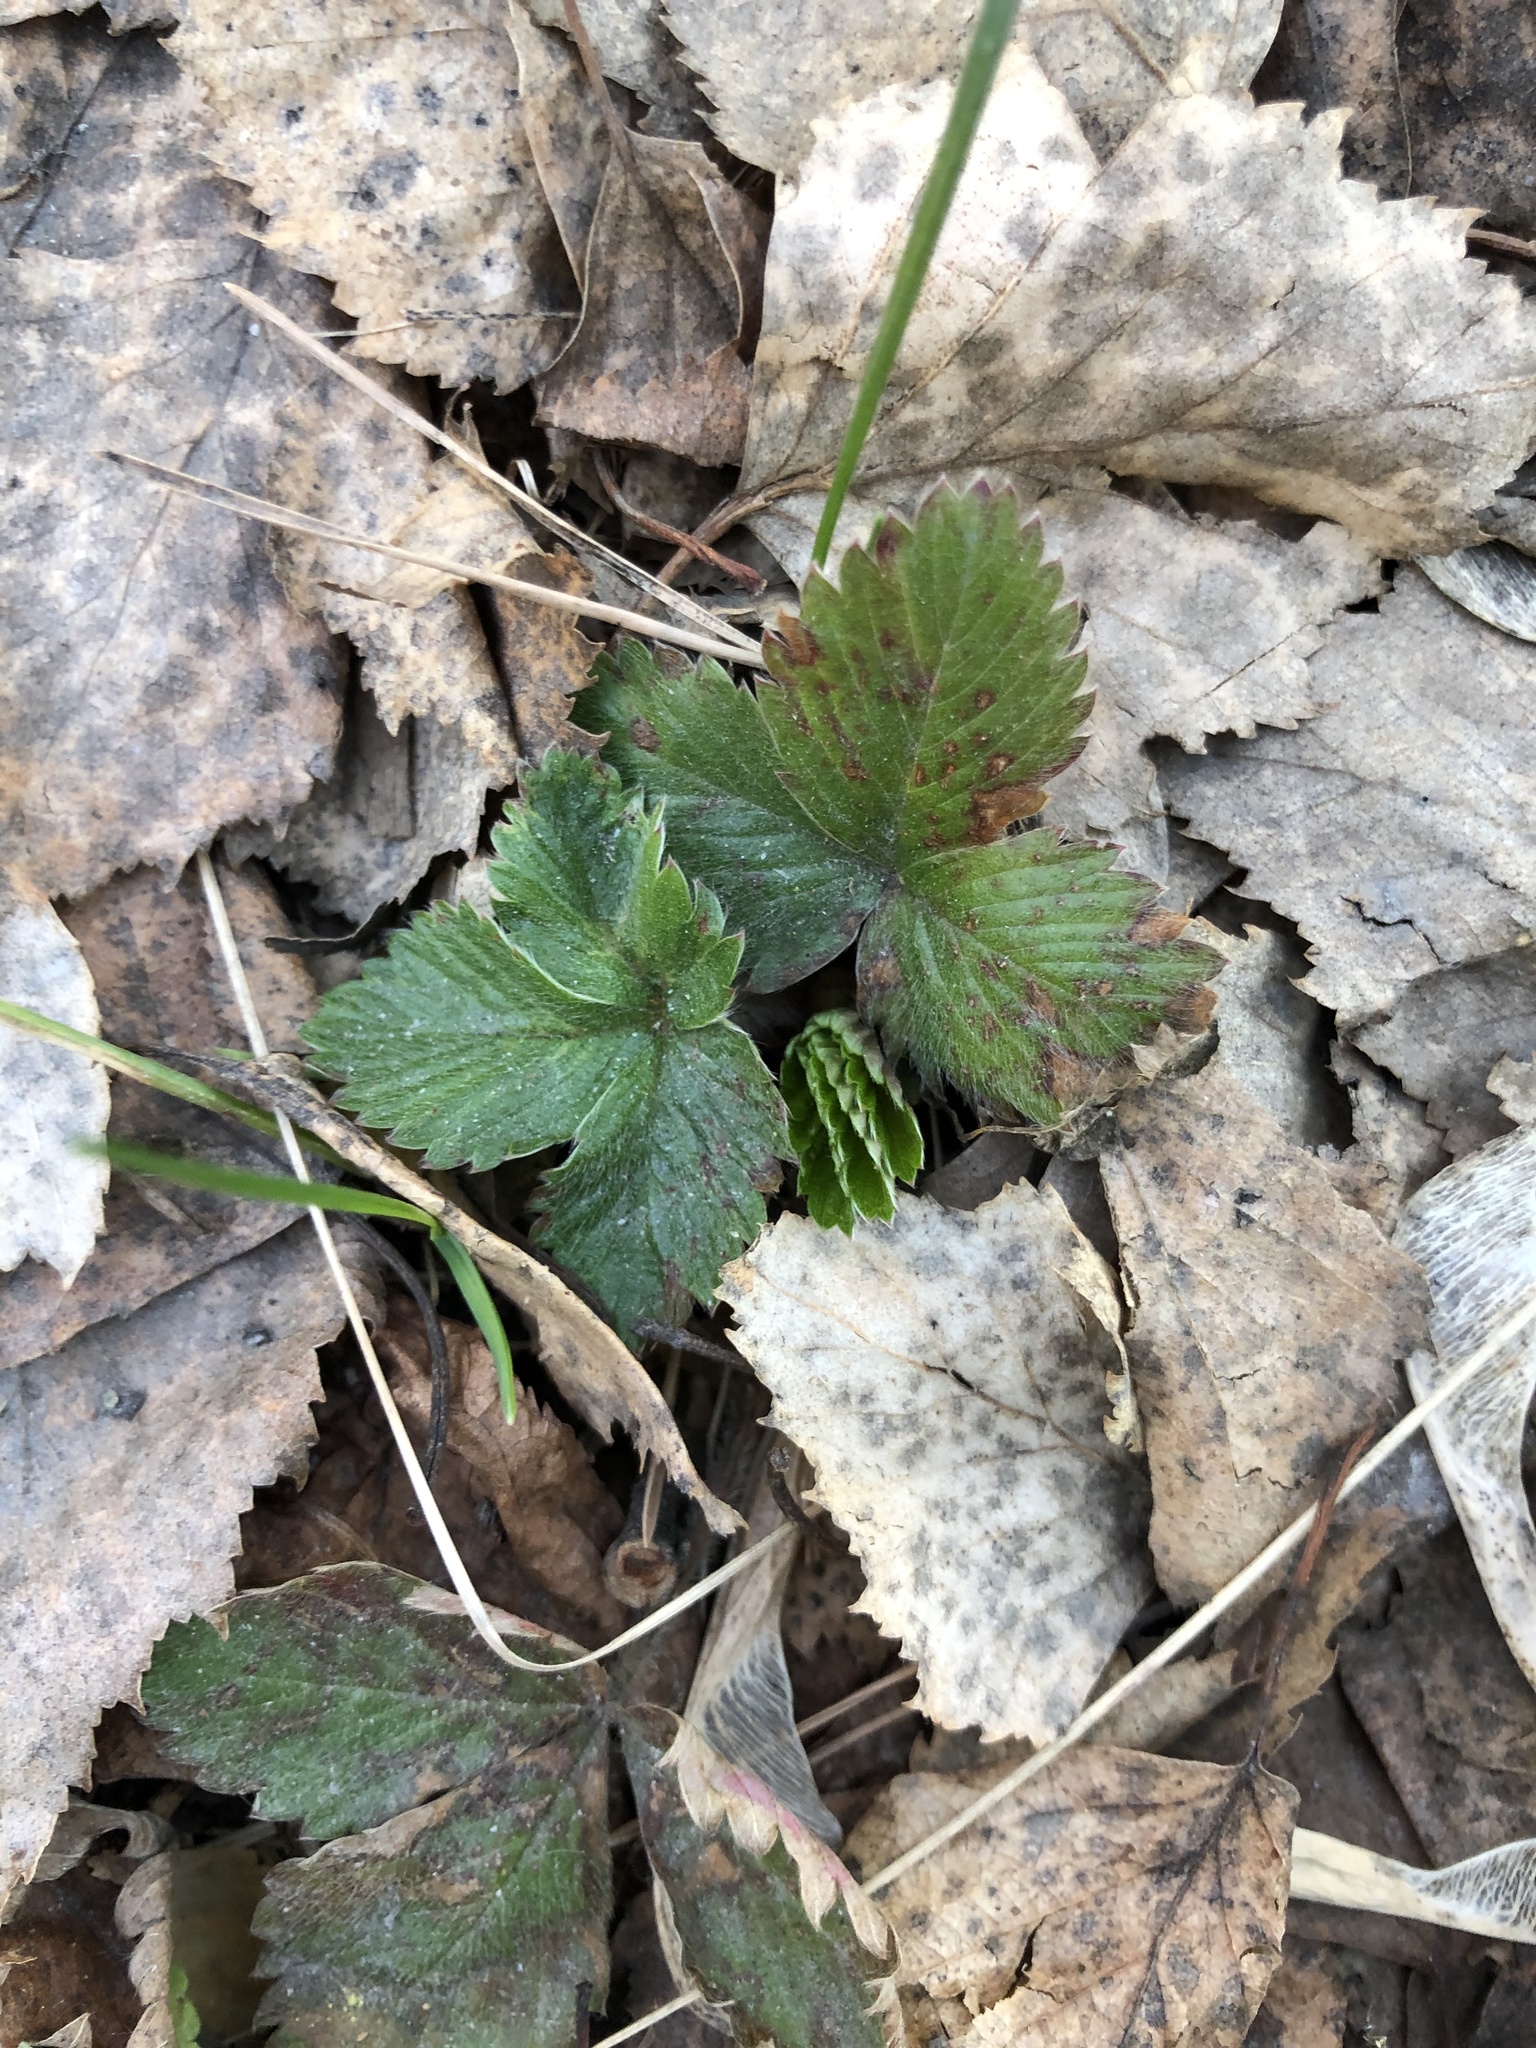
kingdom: Plantae
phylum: Tracheophyta
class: Magnoliopsida
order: Rosales
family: Rosaceae
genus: Fragaria
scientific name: Fragaria vesca
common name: Wild strawberry
